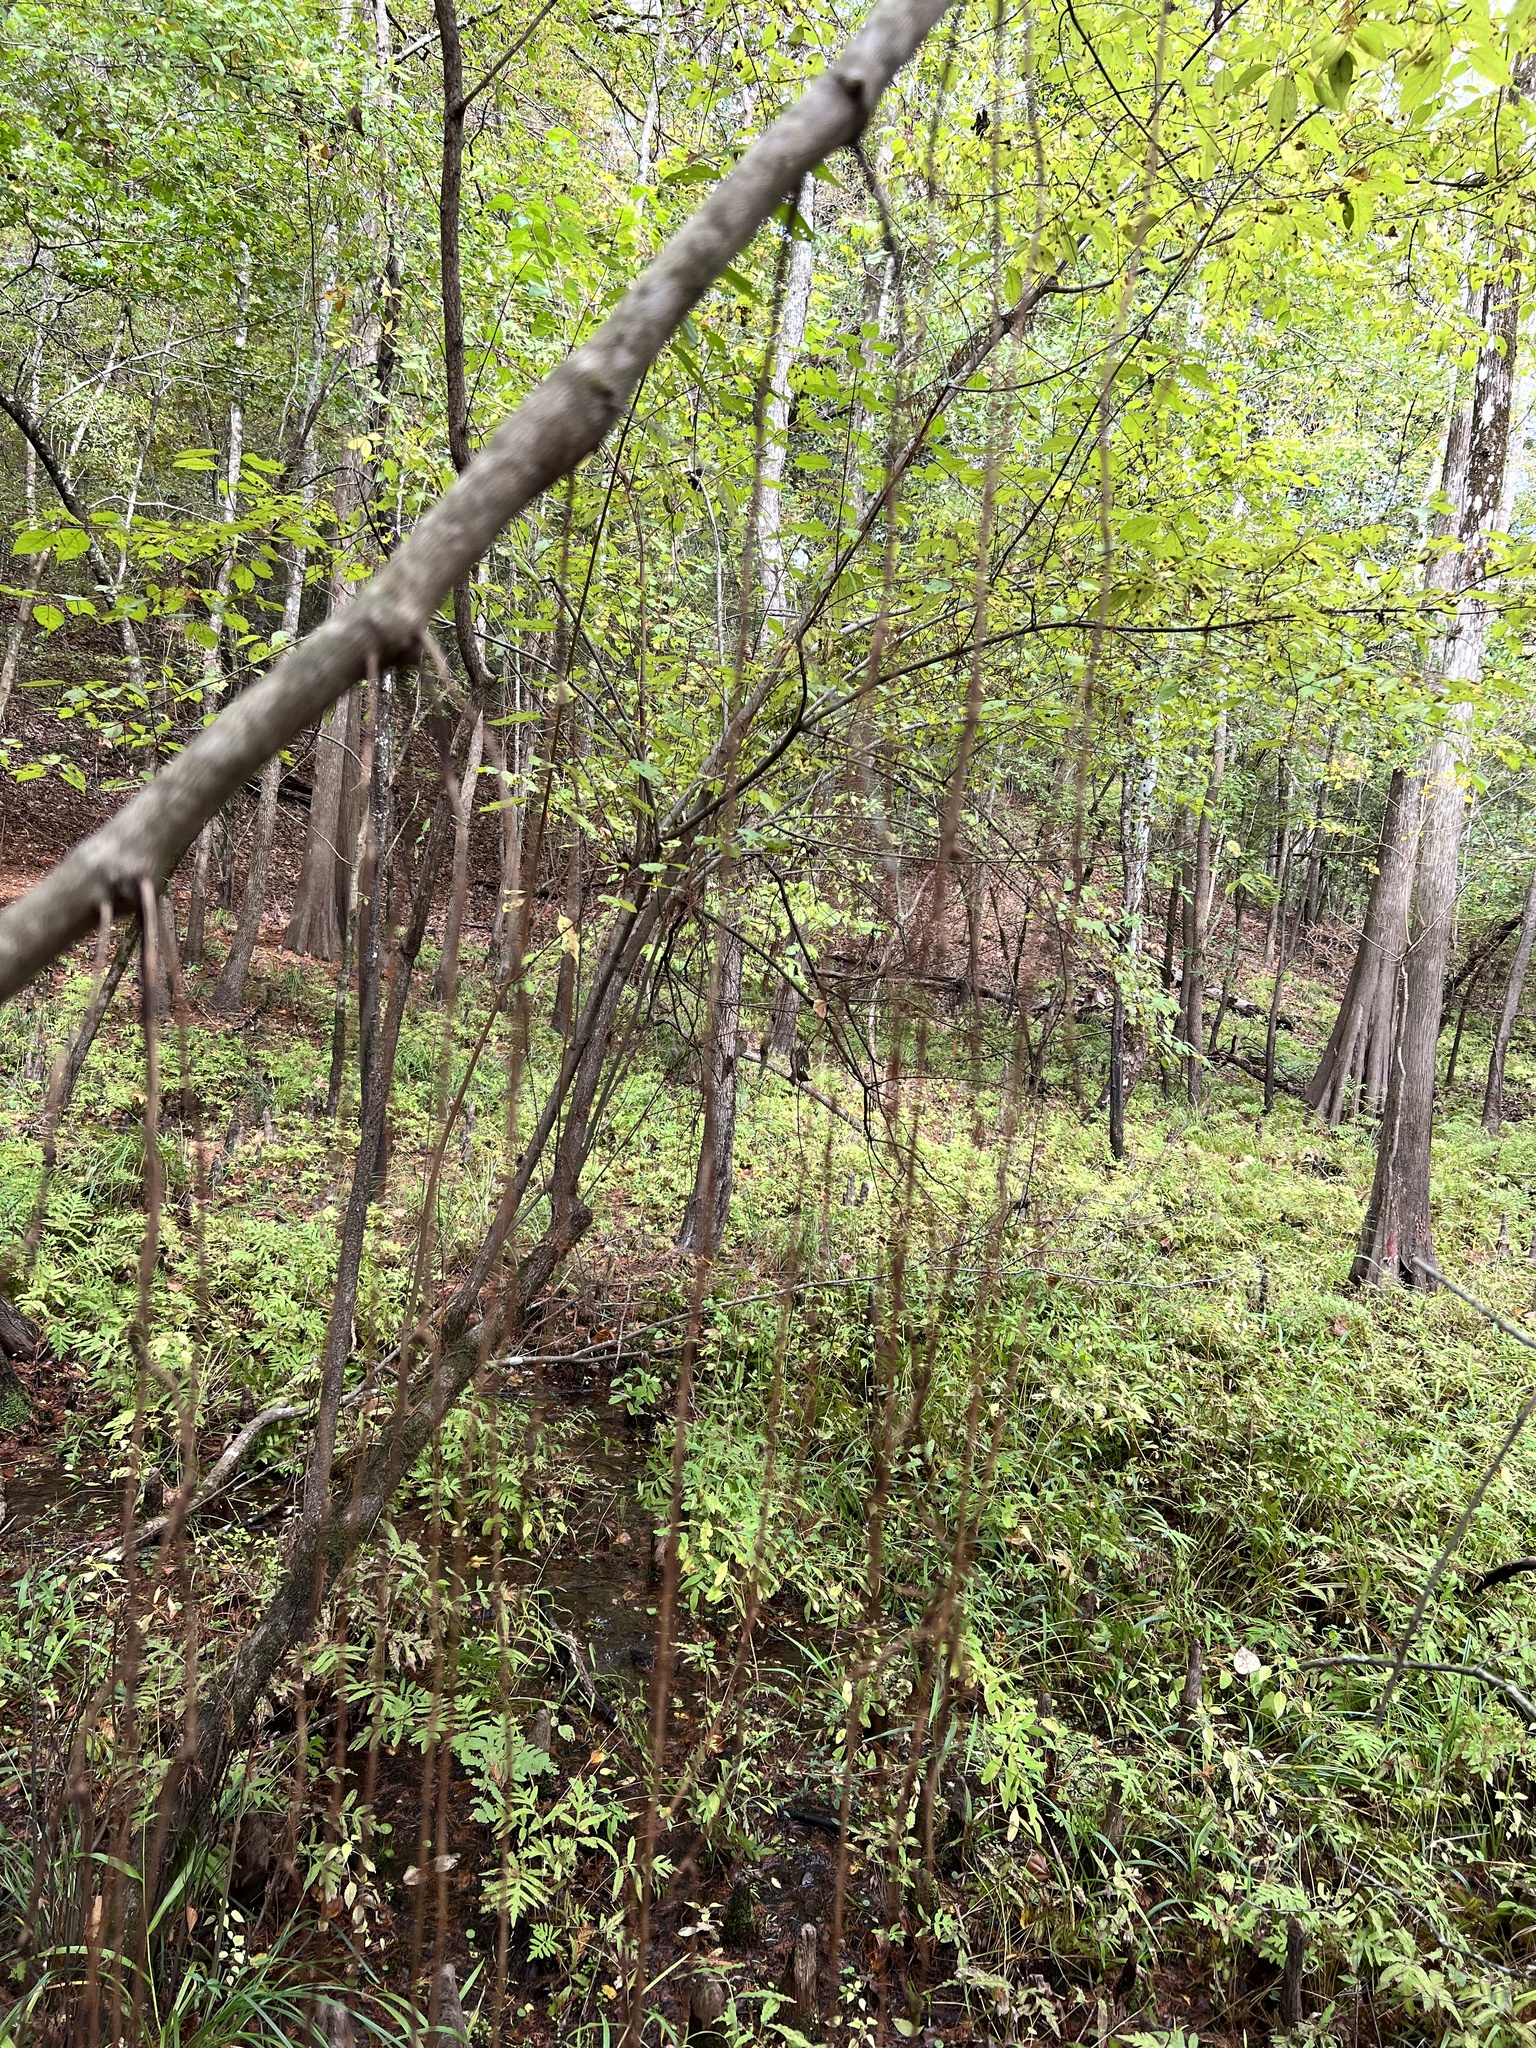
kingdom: Plantae
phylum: Tracheophyta
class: Magnoliopsida
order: Vitales
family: Vitaceae
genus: Vitis
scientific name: Vitis rotundifolia
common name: Muscadine grape
